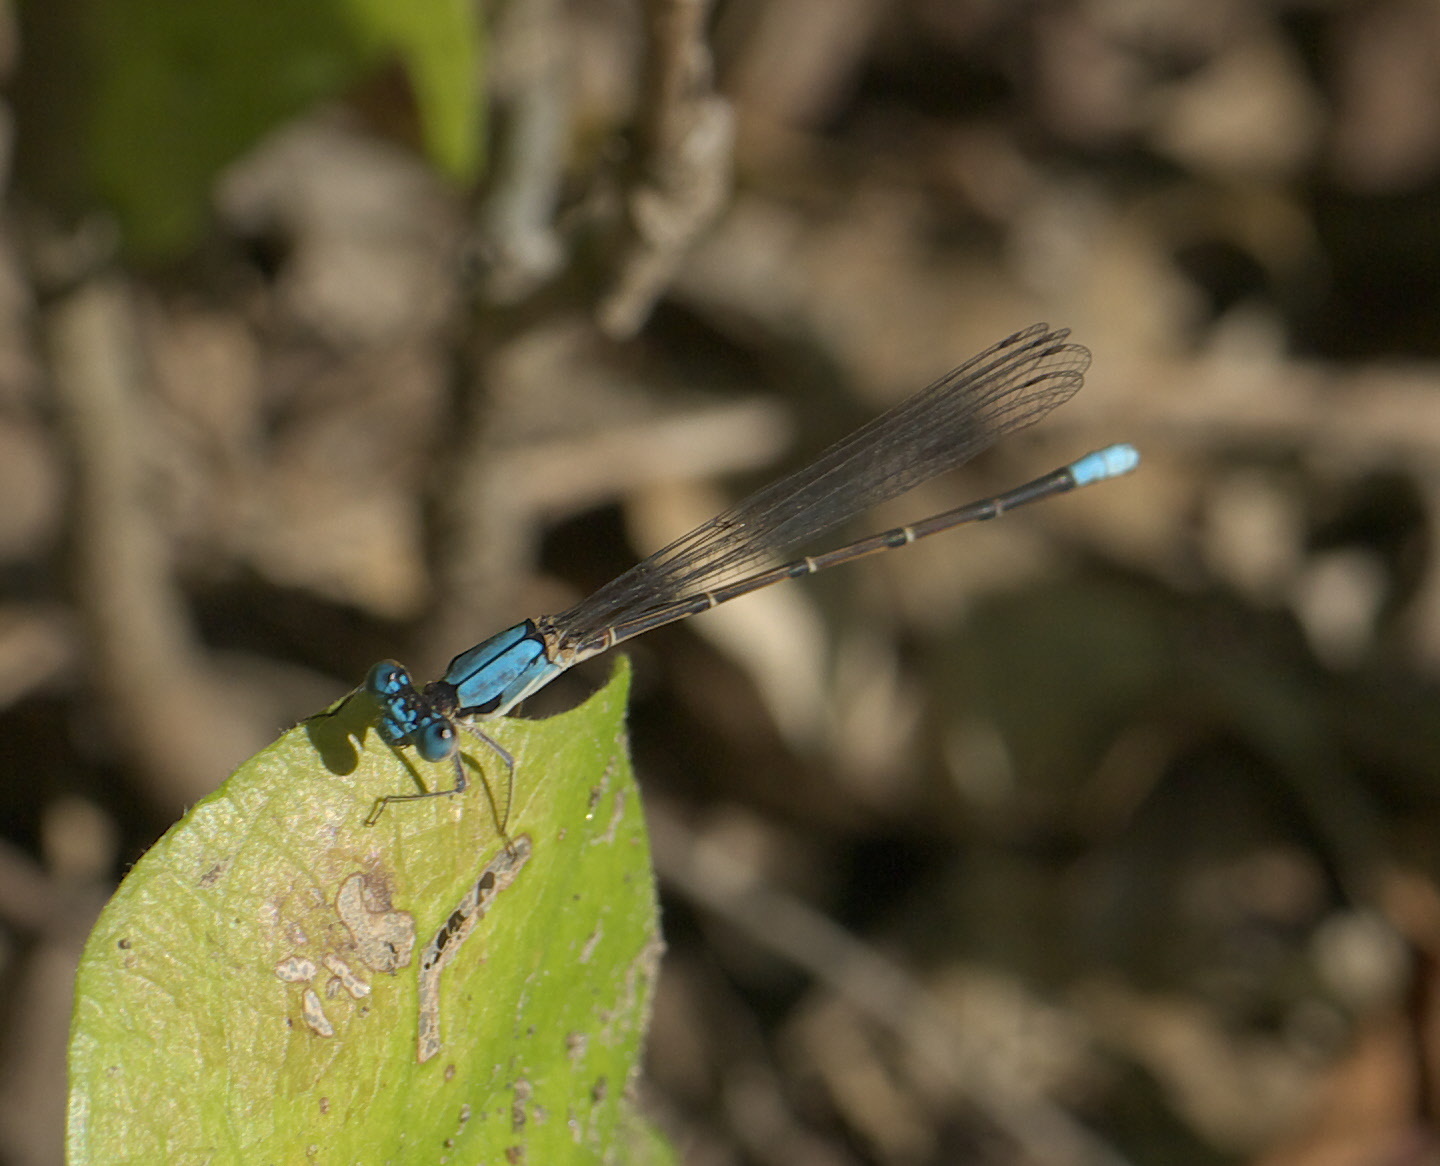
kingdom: Animalia
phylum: Arthropoda
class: Insecta
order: Odonata
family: Coenagrionidae
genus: Argia
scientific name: Argia apicalis
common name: Blue-fronted dancer
